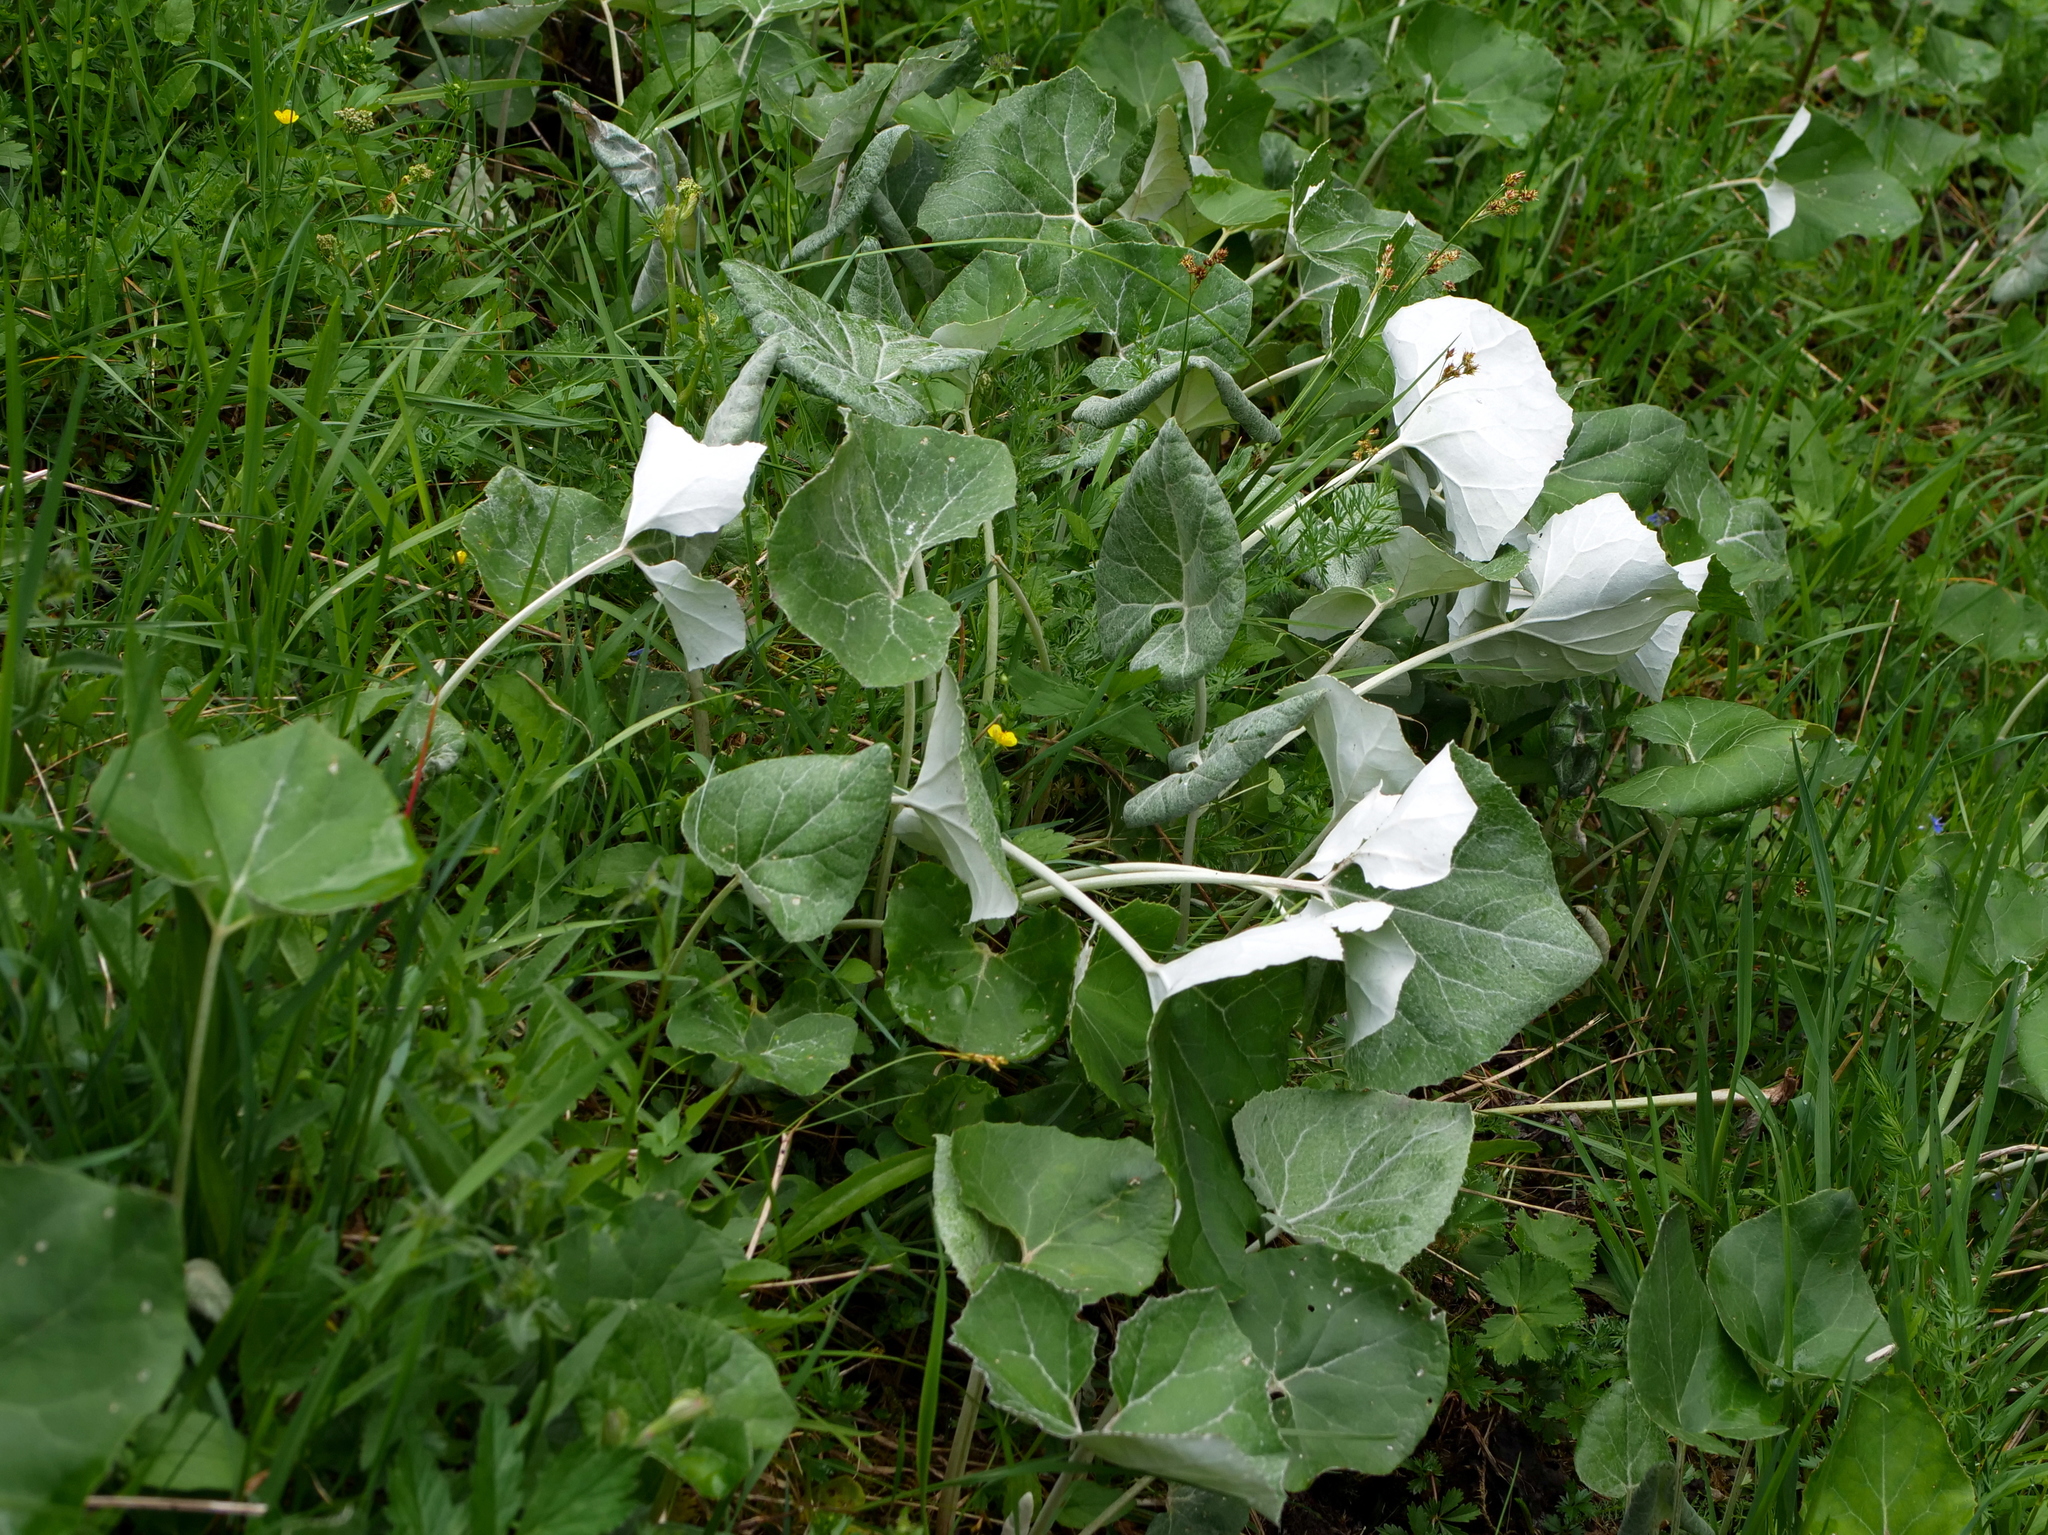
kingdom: Plantae
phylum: Tracheophyta
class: Magnoliopsida
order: Asterales
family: Asteraceae
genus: Petasites
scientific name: Petasites paradoxus
